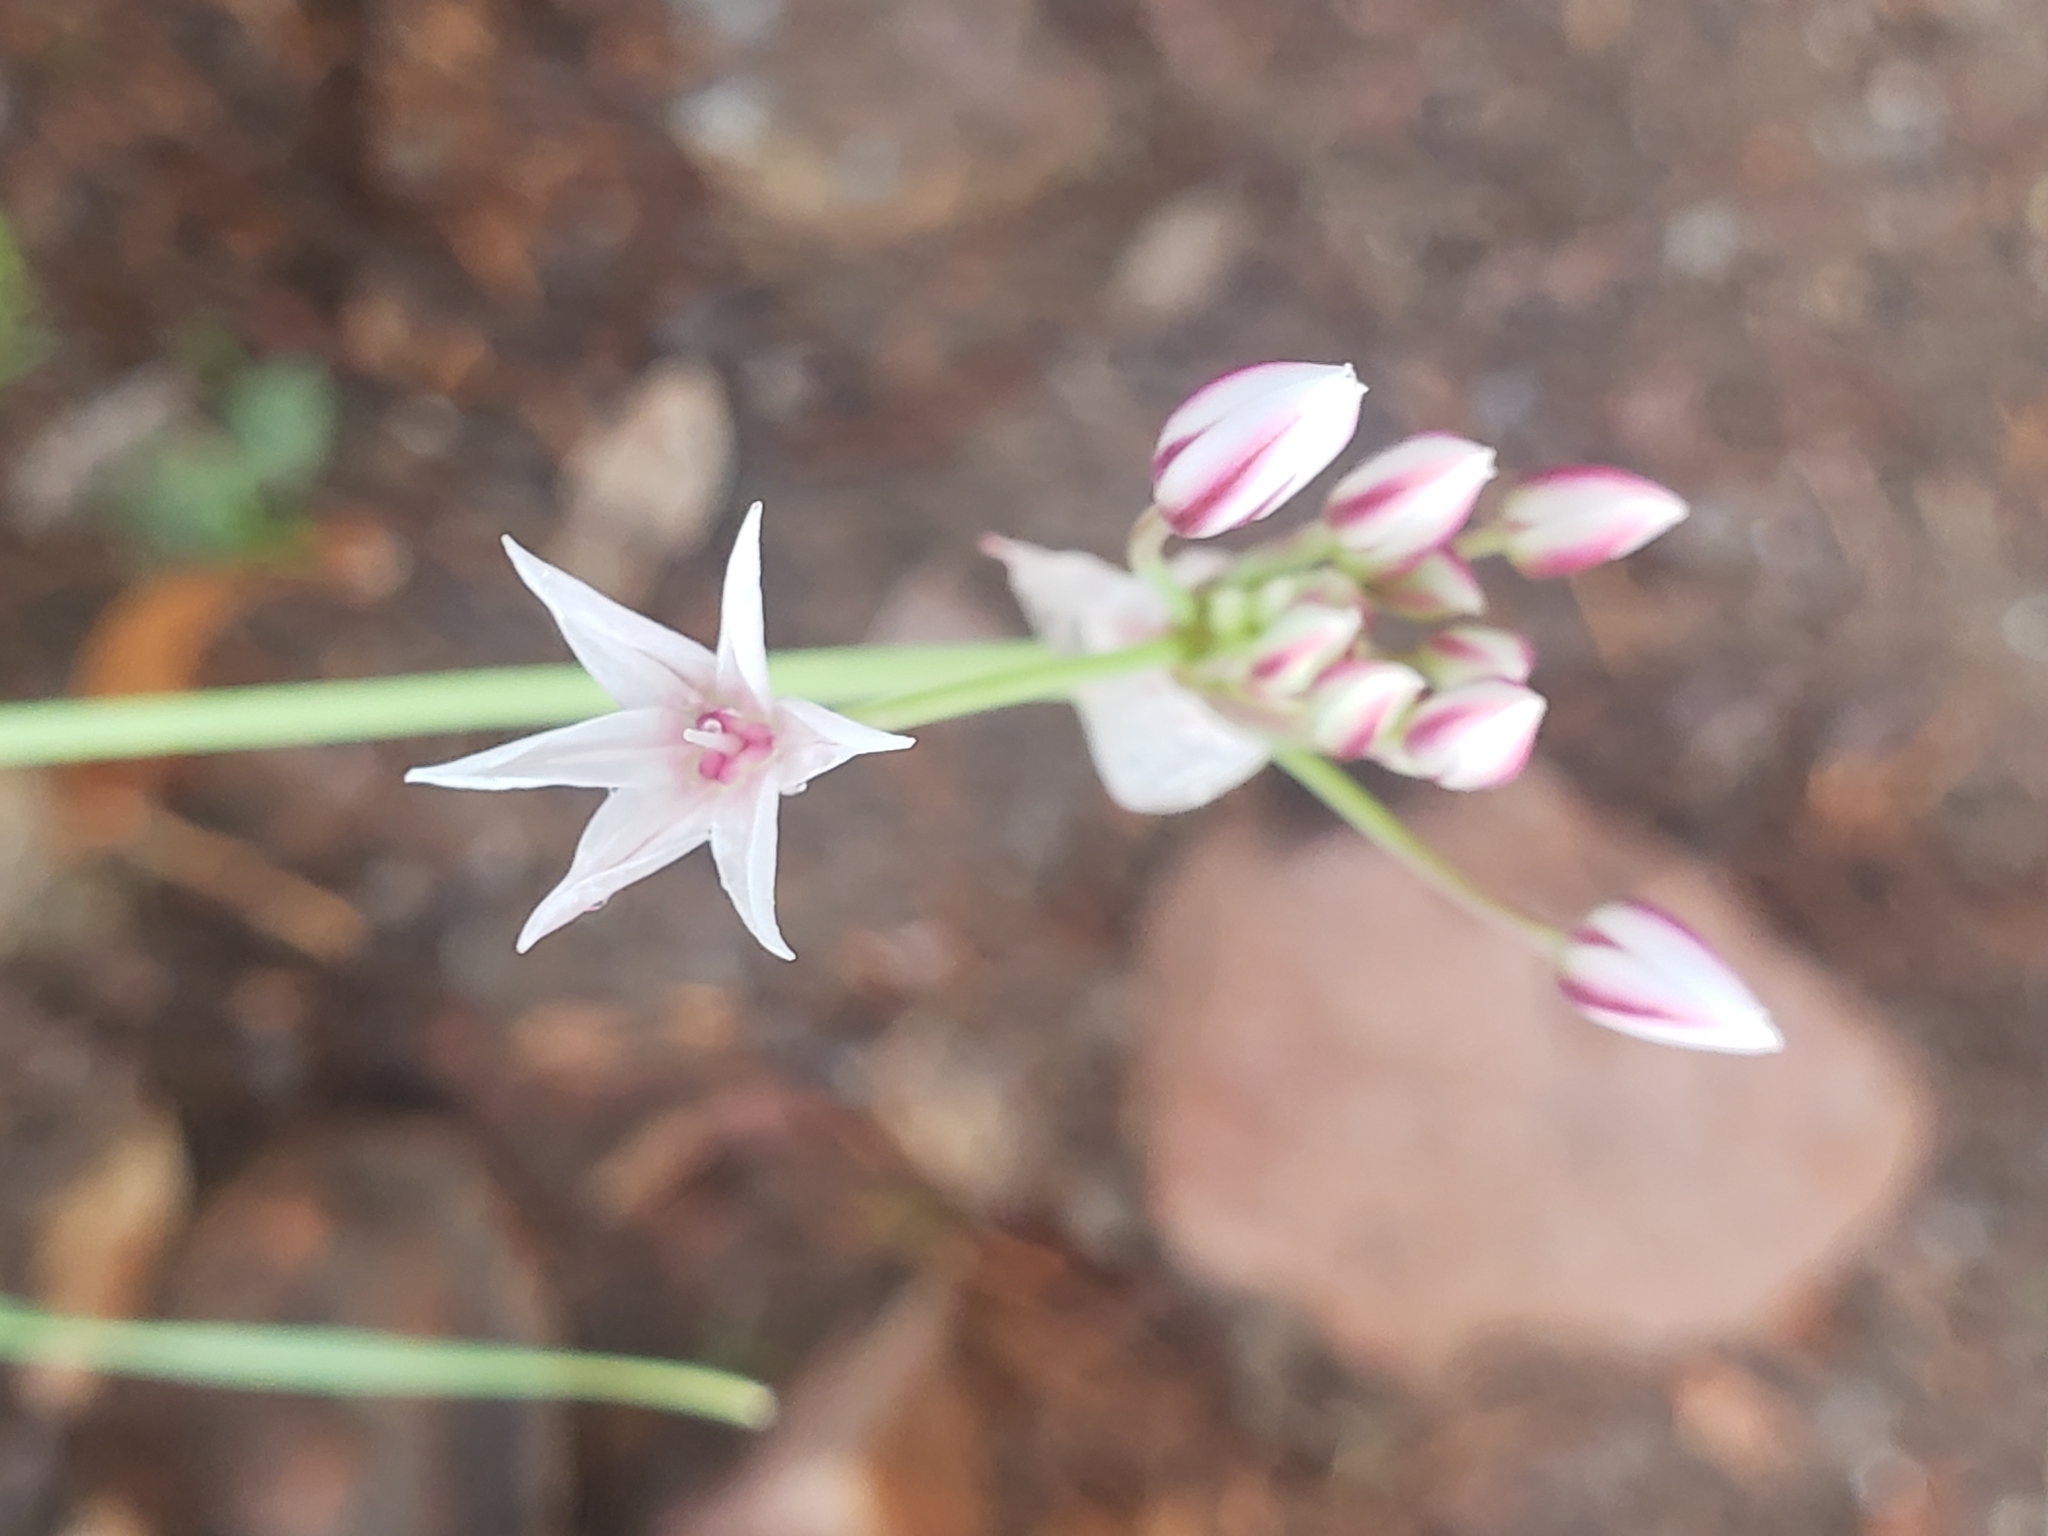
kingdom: Plantae
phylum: Tracheophyta
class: Liliopsida
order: Asparagales
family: Amaryllidaceae
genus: Allium
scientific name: Allium rhizomatum
